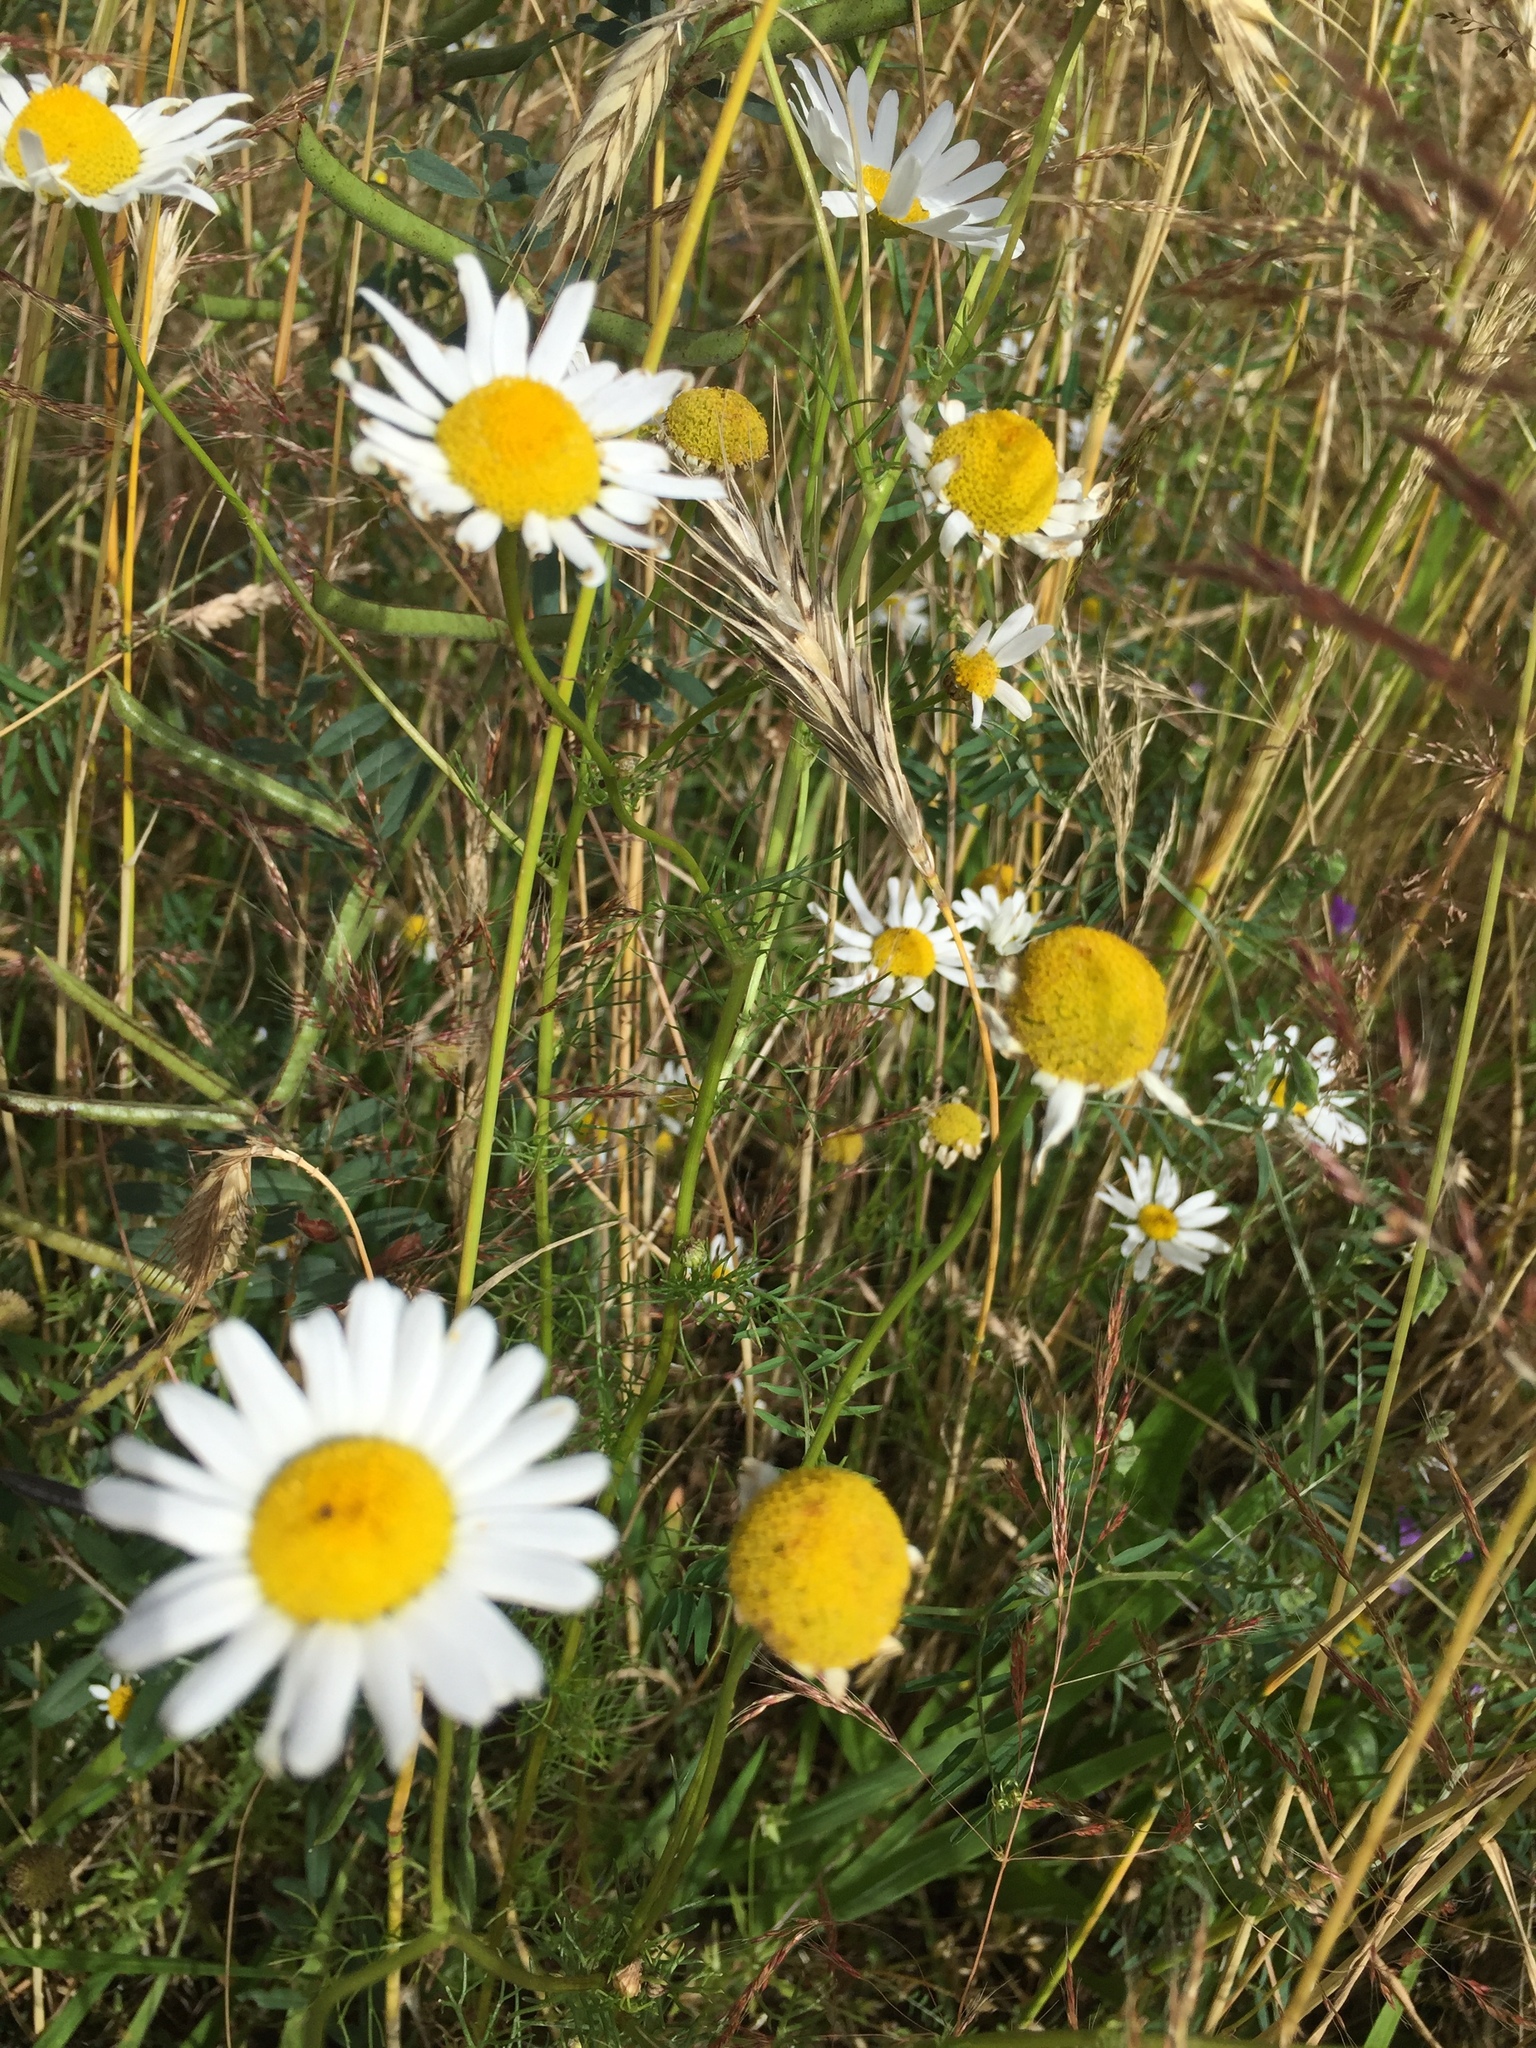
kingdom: Plantae
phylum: Tracheophyta
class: Magnoliopsida
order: Asterales
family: Asteraceae
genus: Tripleurospermum
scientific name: Tripleurospermum inodorum
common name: Scentless mayweed
